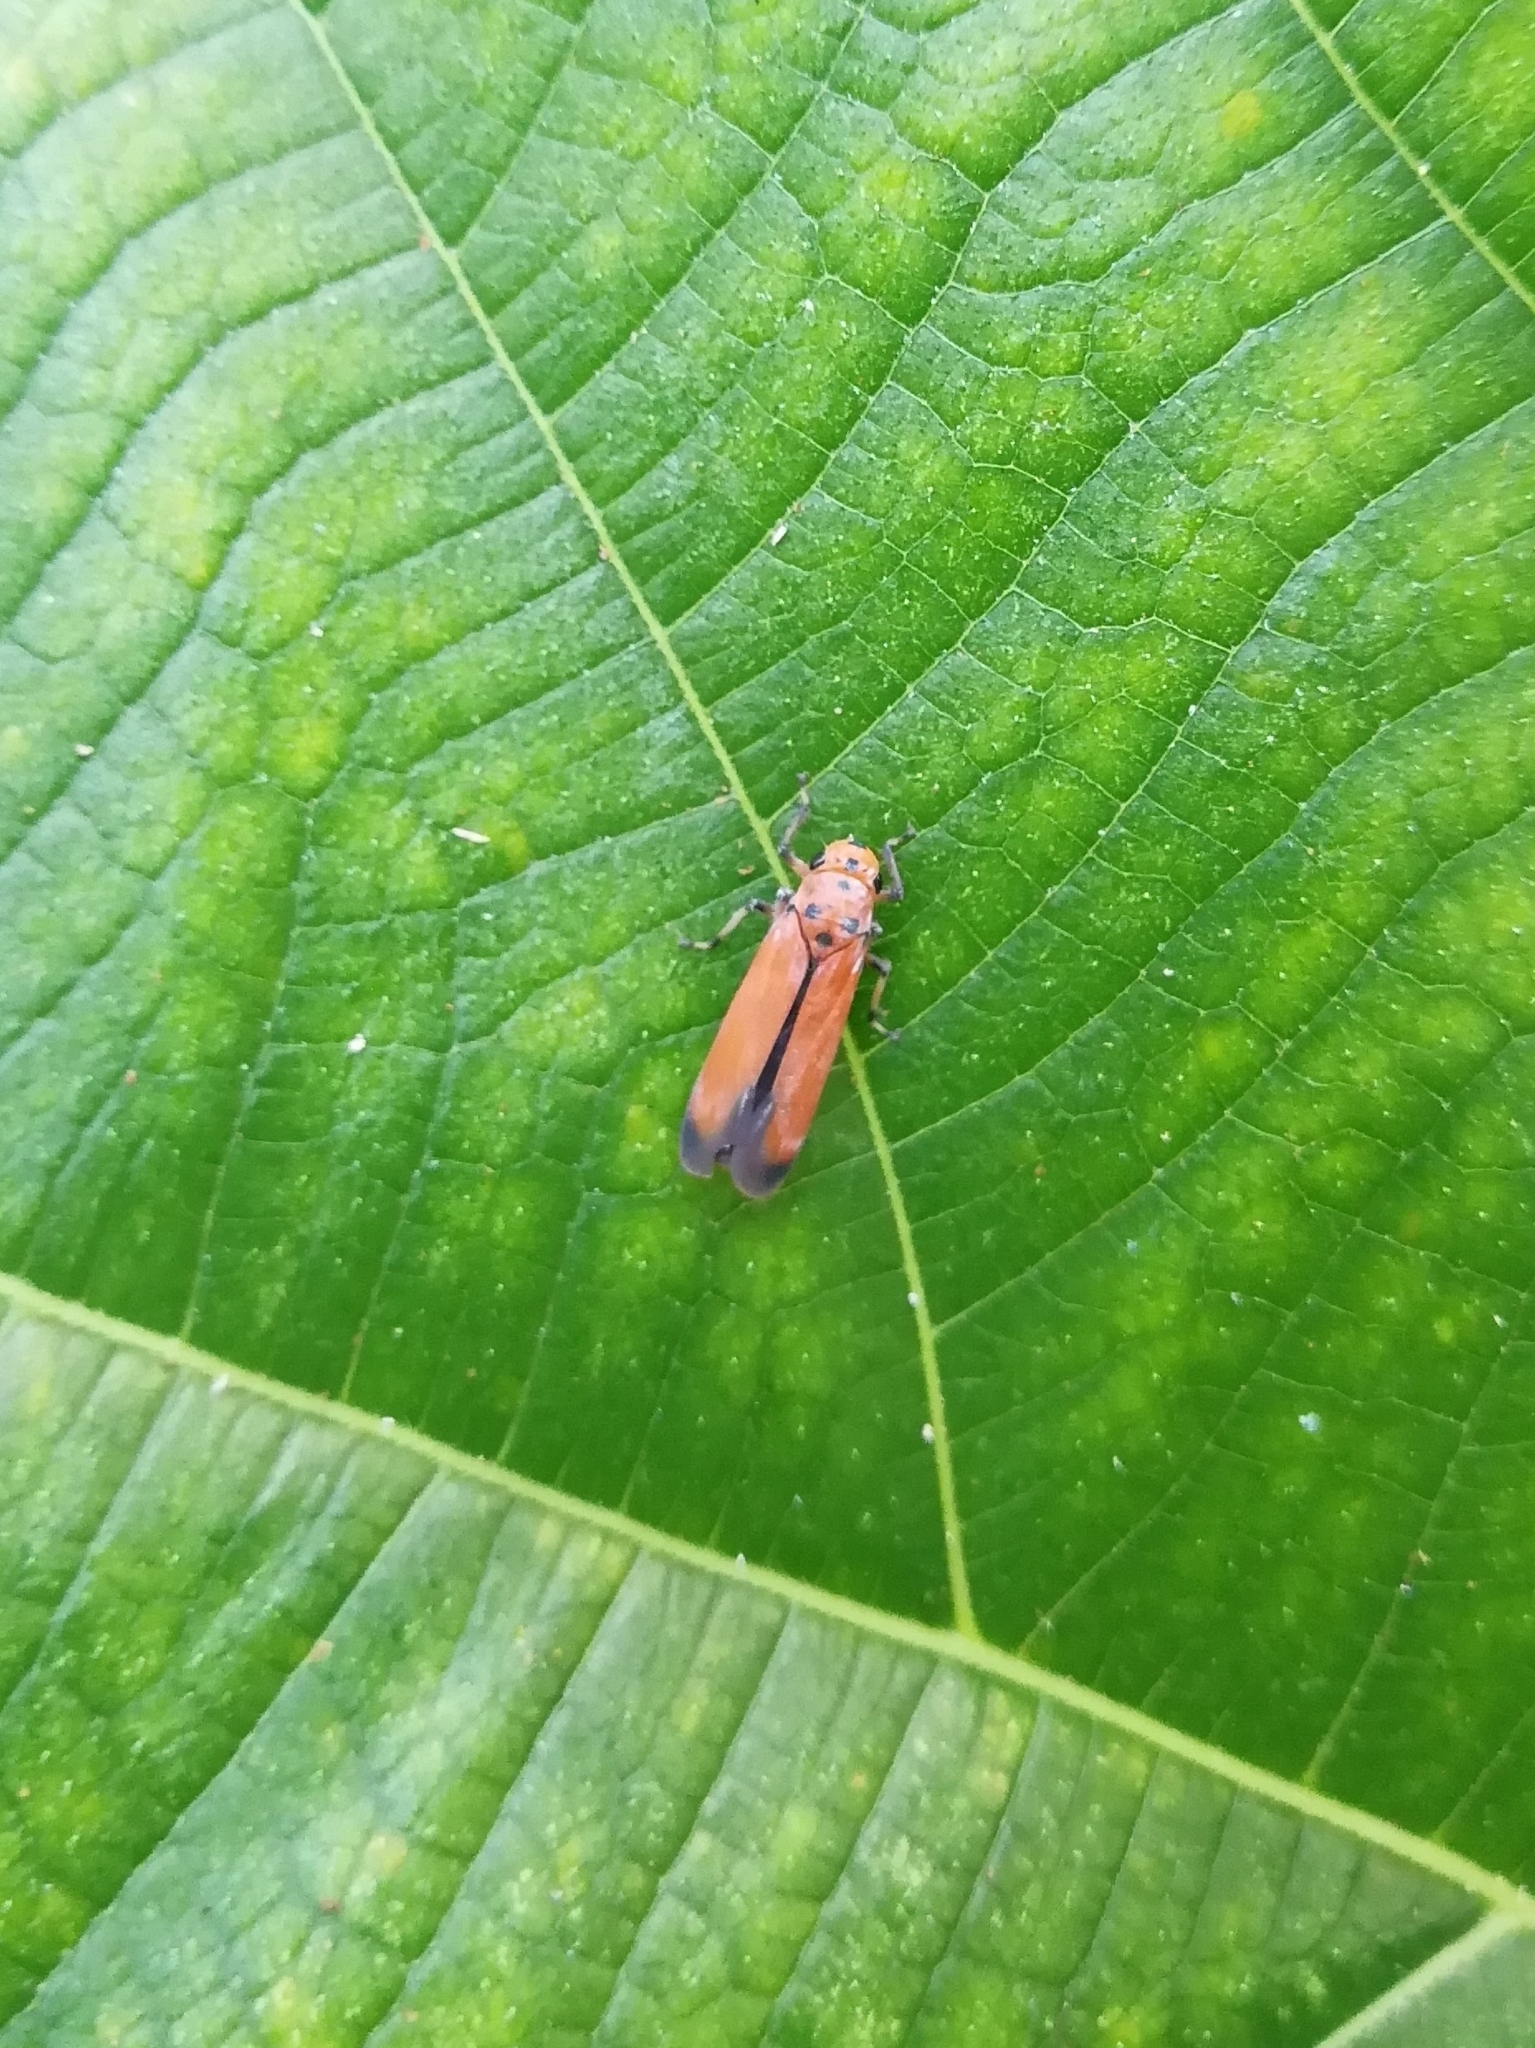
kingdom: Animalia
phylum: Arthropoda
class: Insecta
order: Hemiptera
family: Cicadellidae
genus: Bothrogonia
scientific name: Bothrogonia addita
